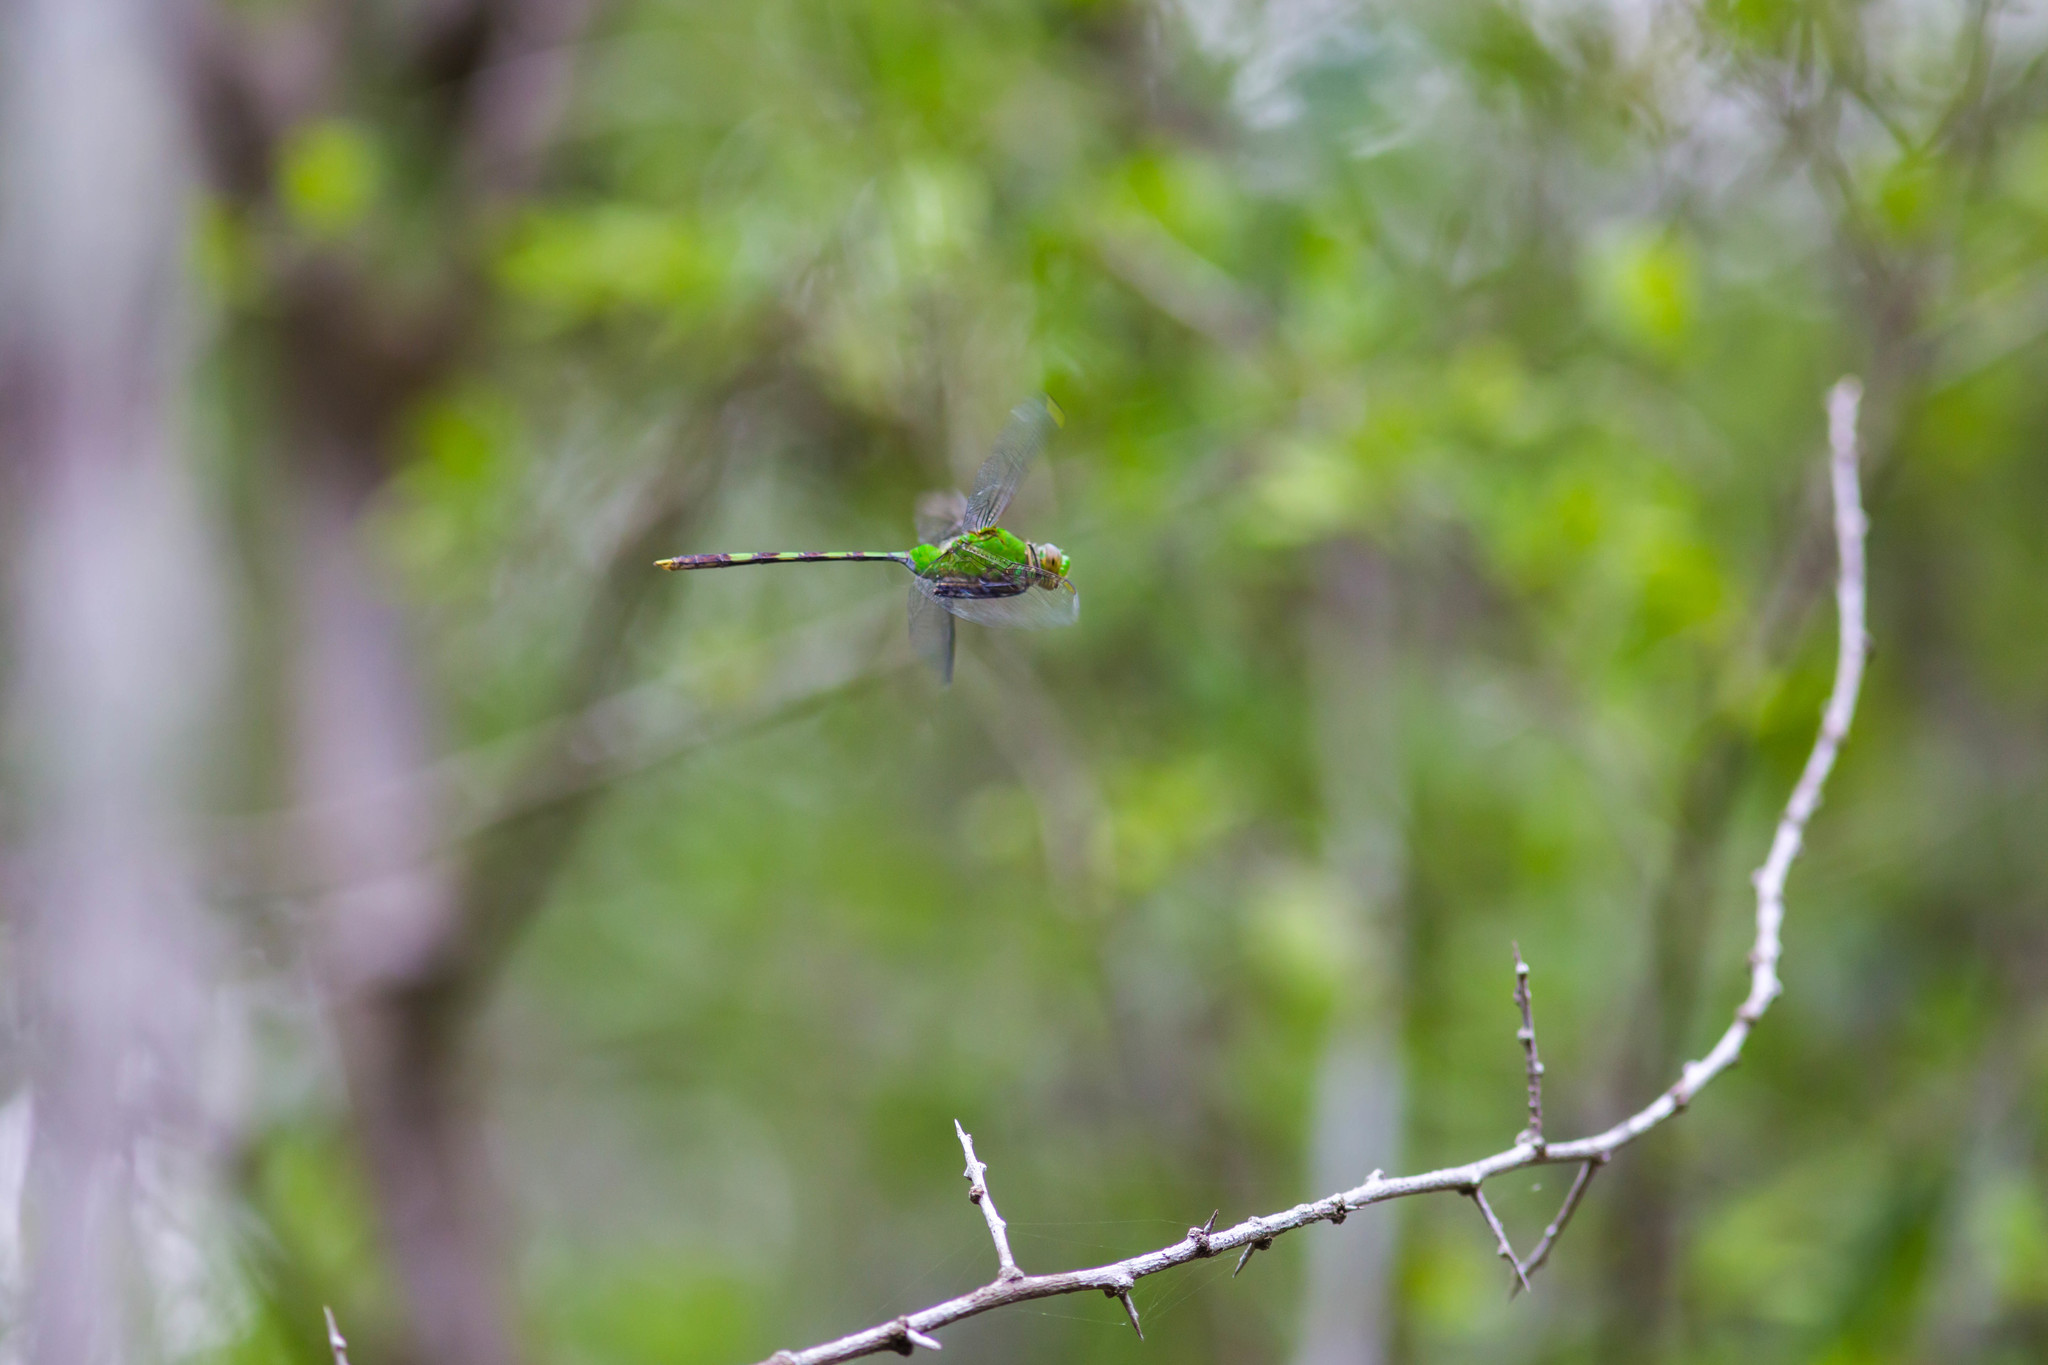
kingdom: Animalia
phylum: Arthropoda
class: Insecta
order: Odonata
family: Libellulidae
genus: Erythemis
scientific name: Erythemis vesiculosa
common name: Great pondhawk
